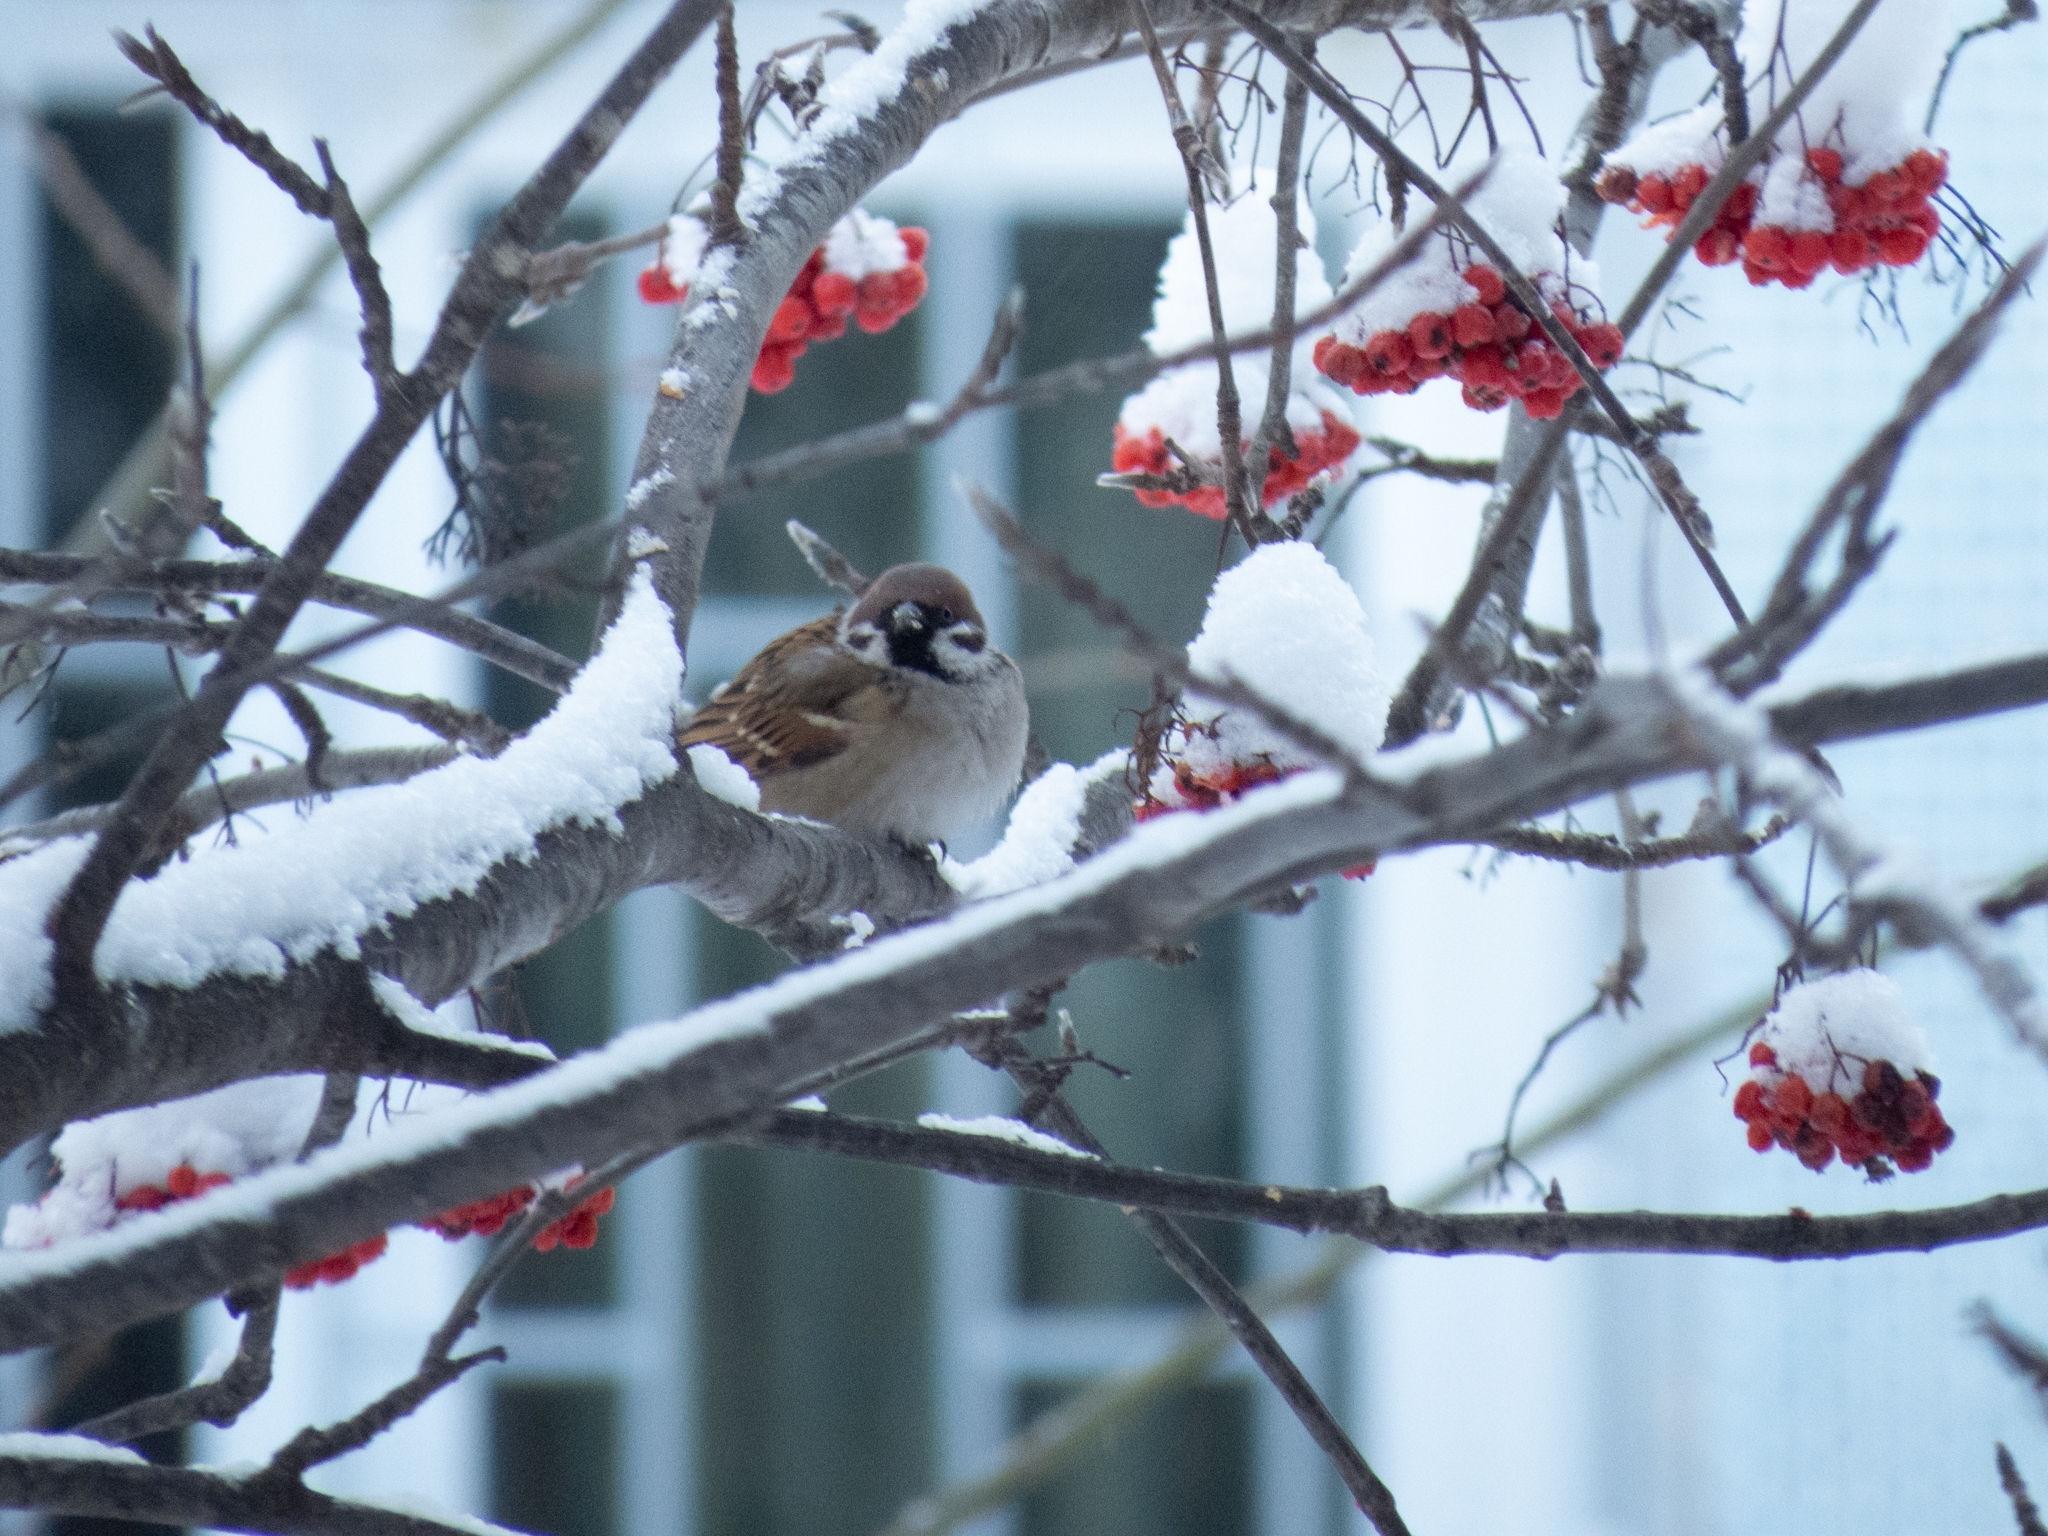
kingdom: Animalia
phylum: Chordata
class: Aves
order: Passeriformes
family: Passeridae
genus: Passer
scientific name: Passer montanus
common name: Eurasian tree sparrow
